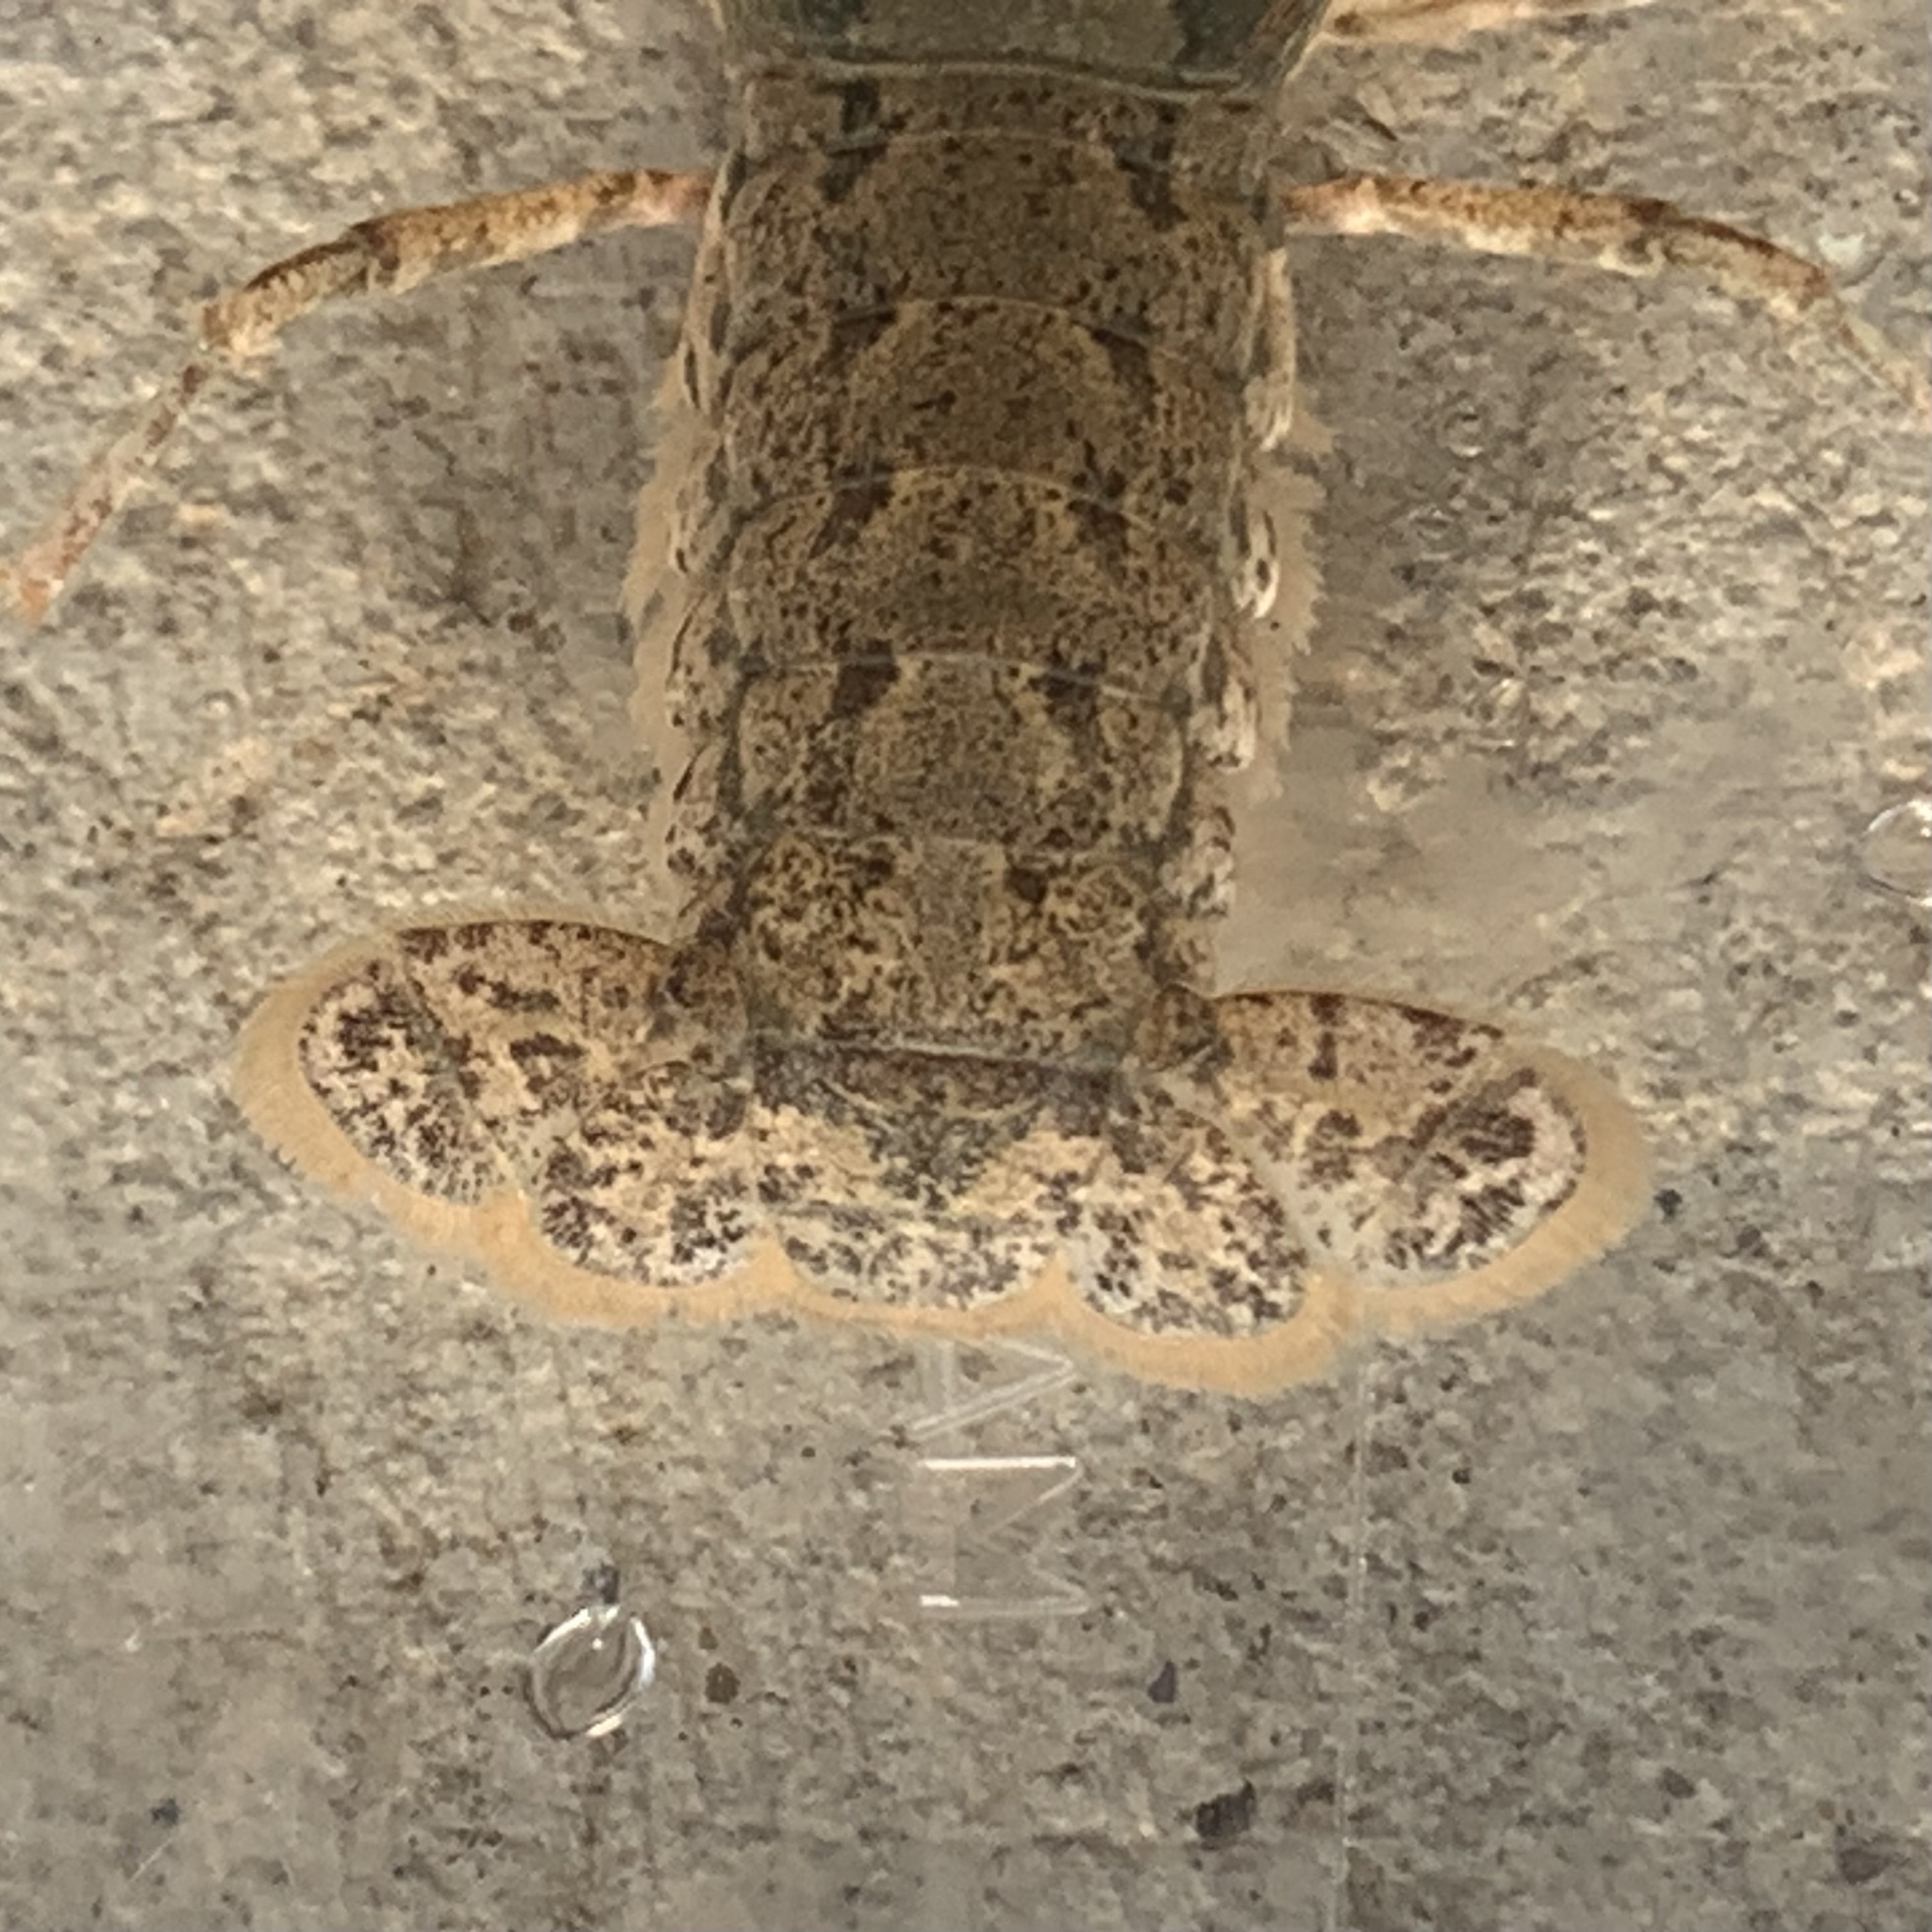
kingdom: Animalia
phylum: Arthropoda
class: Malacostraca
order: Decapoda
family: Cambaridae
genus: Procambarus
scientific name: Procambarus curdi
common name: Red river burrowing crayfish
